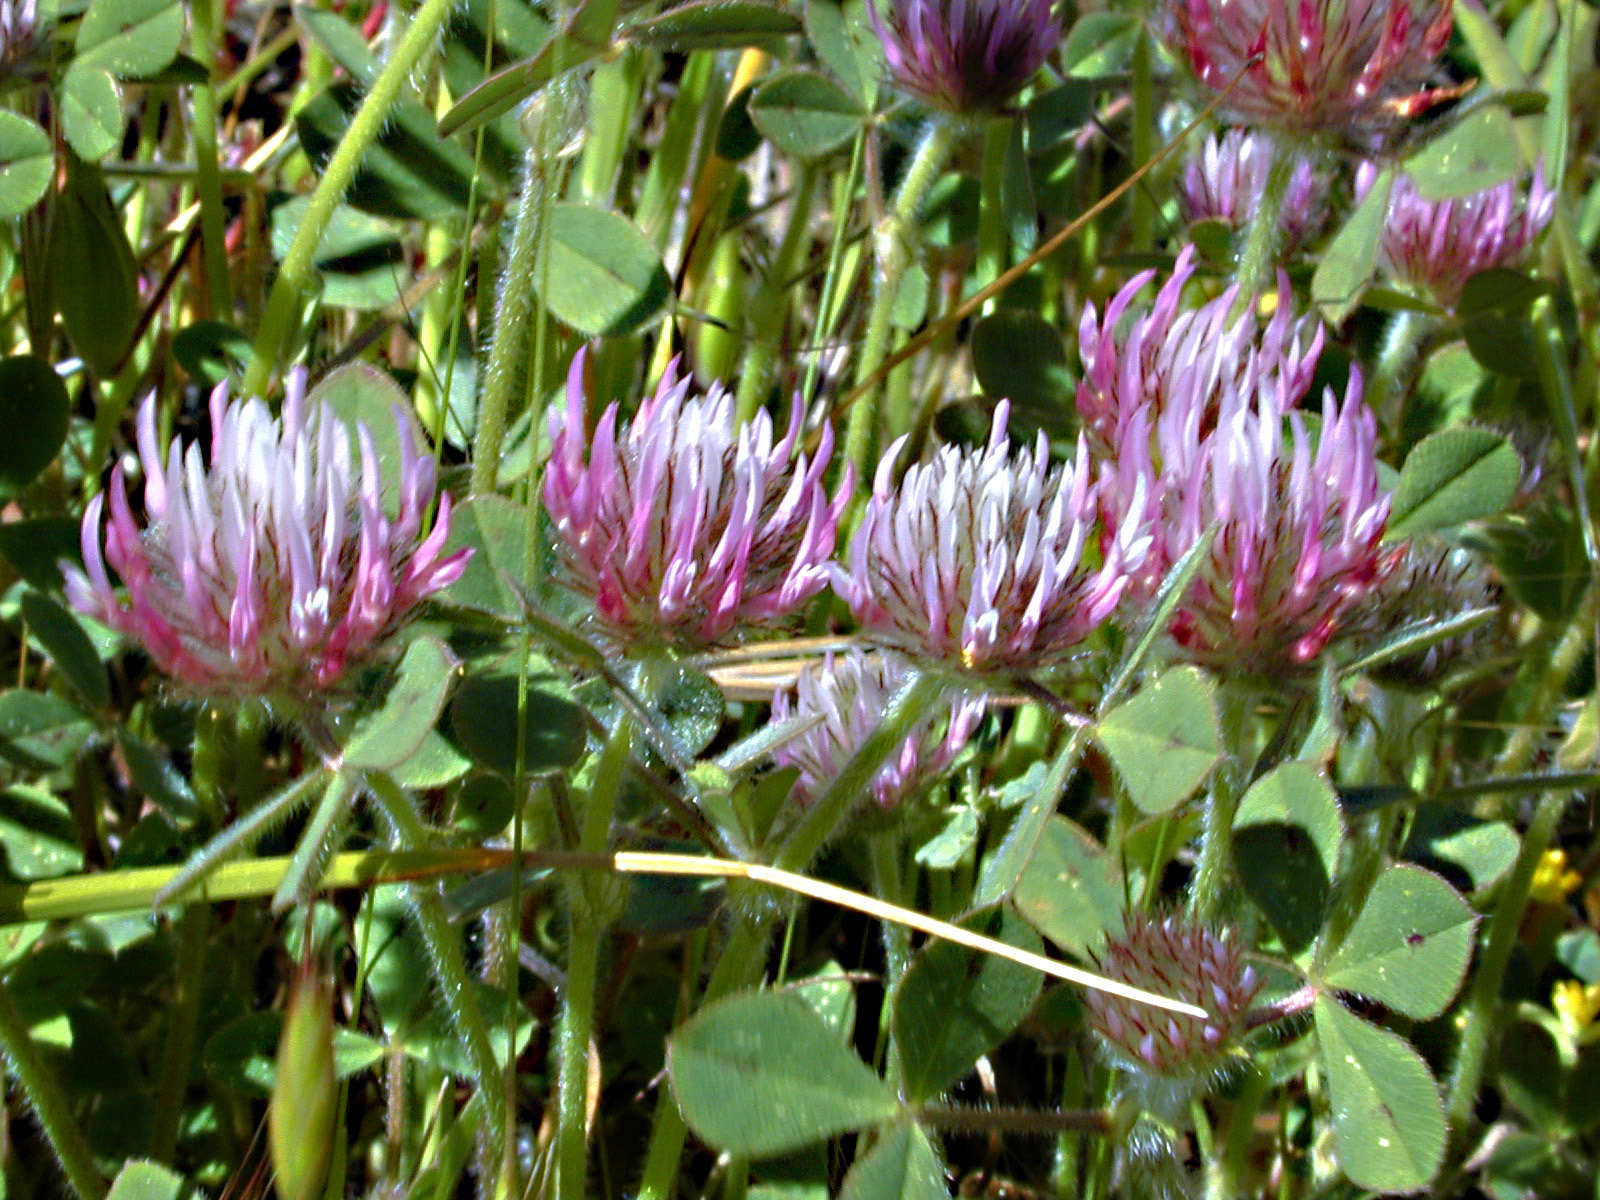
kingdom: Plantae
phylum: Tracheophyta
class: Magnoliopsida
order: Fabales
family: Fabaceae
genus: Trifolium
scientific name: Trifolium hirtum
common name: Rose clover
